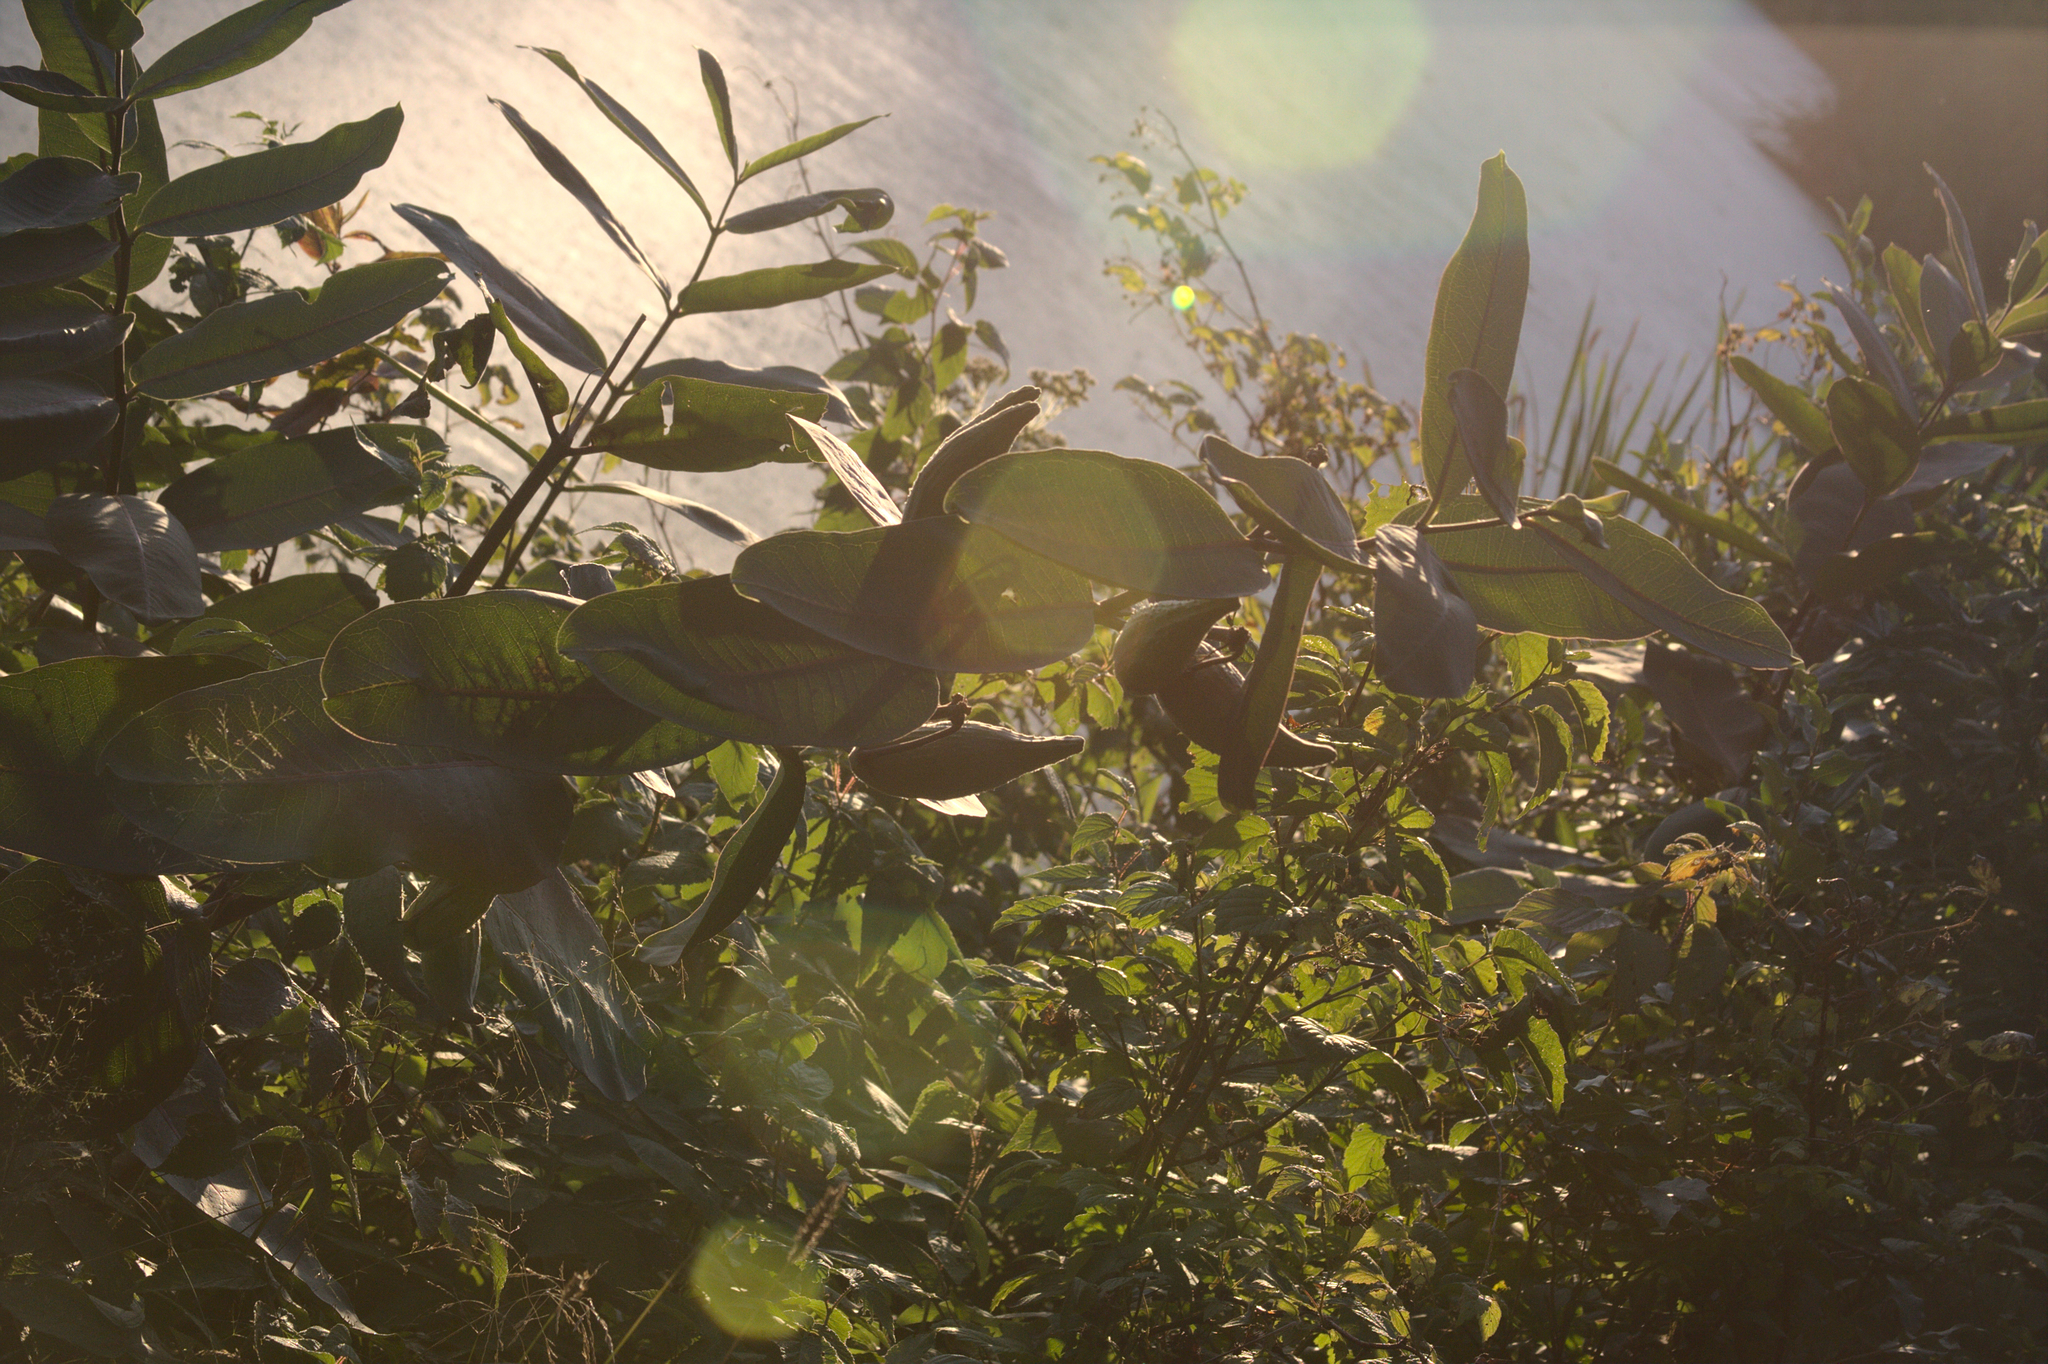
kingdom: Plantae
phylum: Tracheophyta
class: Magnoliopsida
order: Gentianales
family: Apocynaceae
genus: Asclepias
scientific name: Asclepias syriaca
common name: Common milkweed
